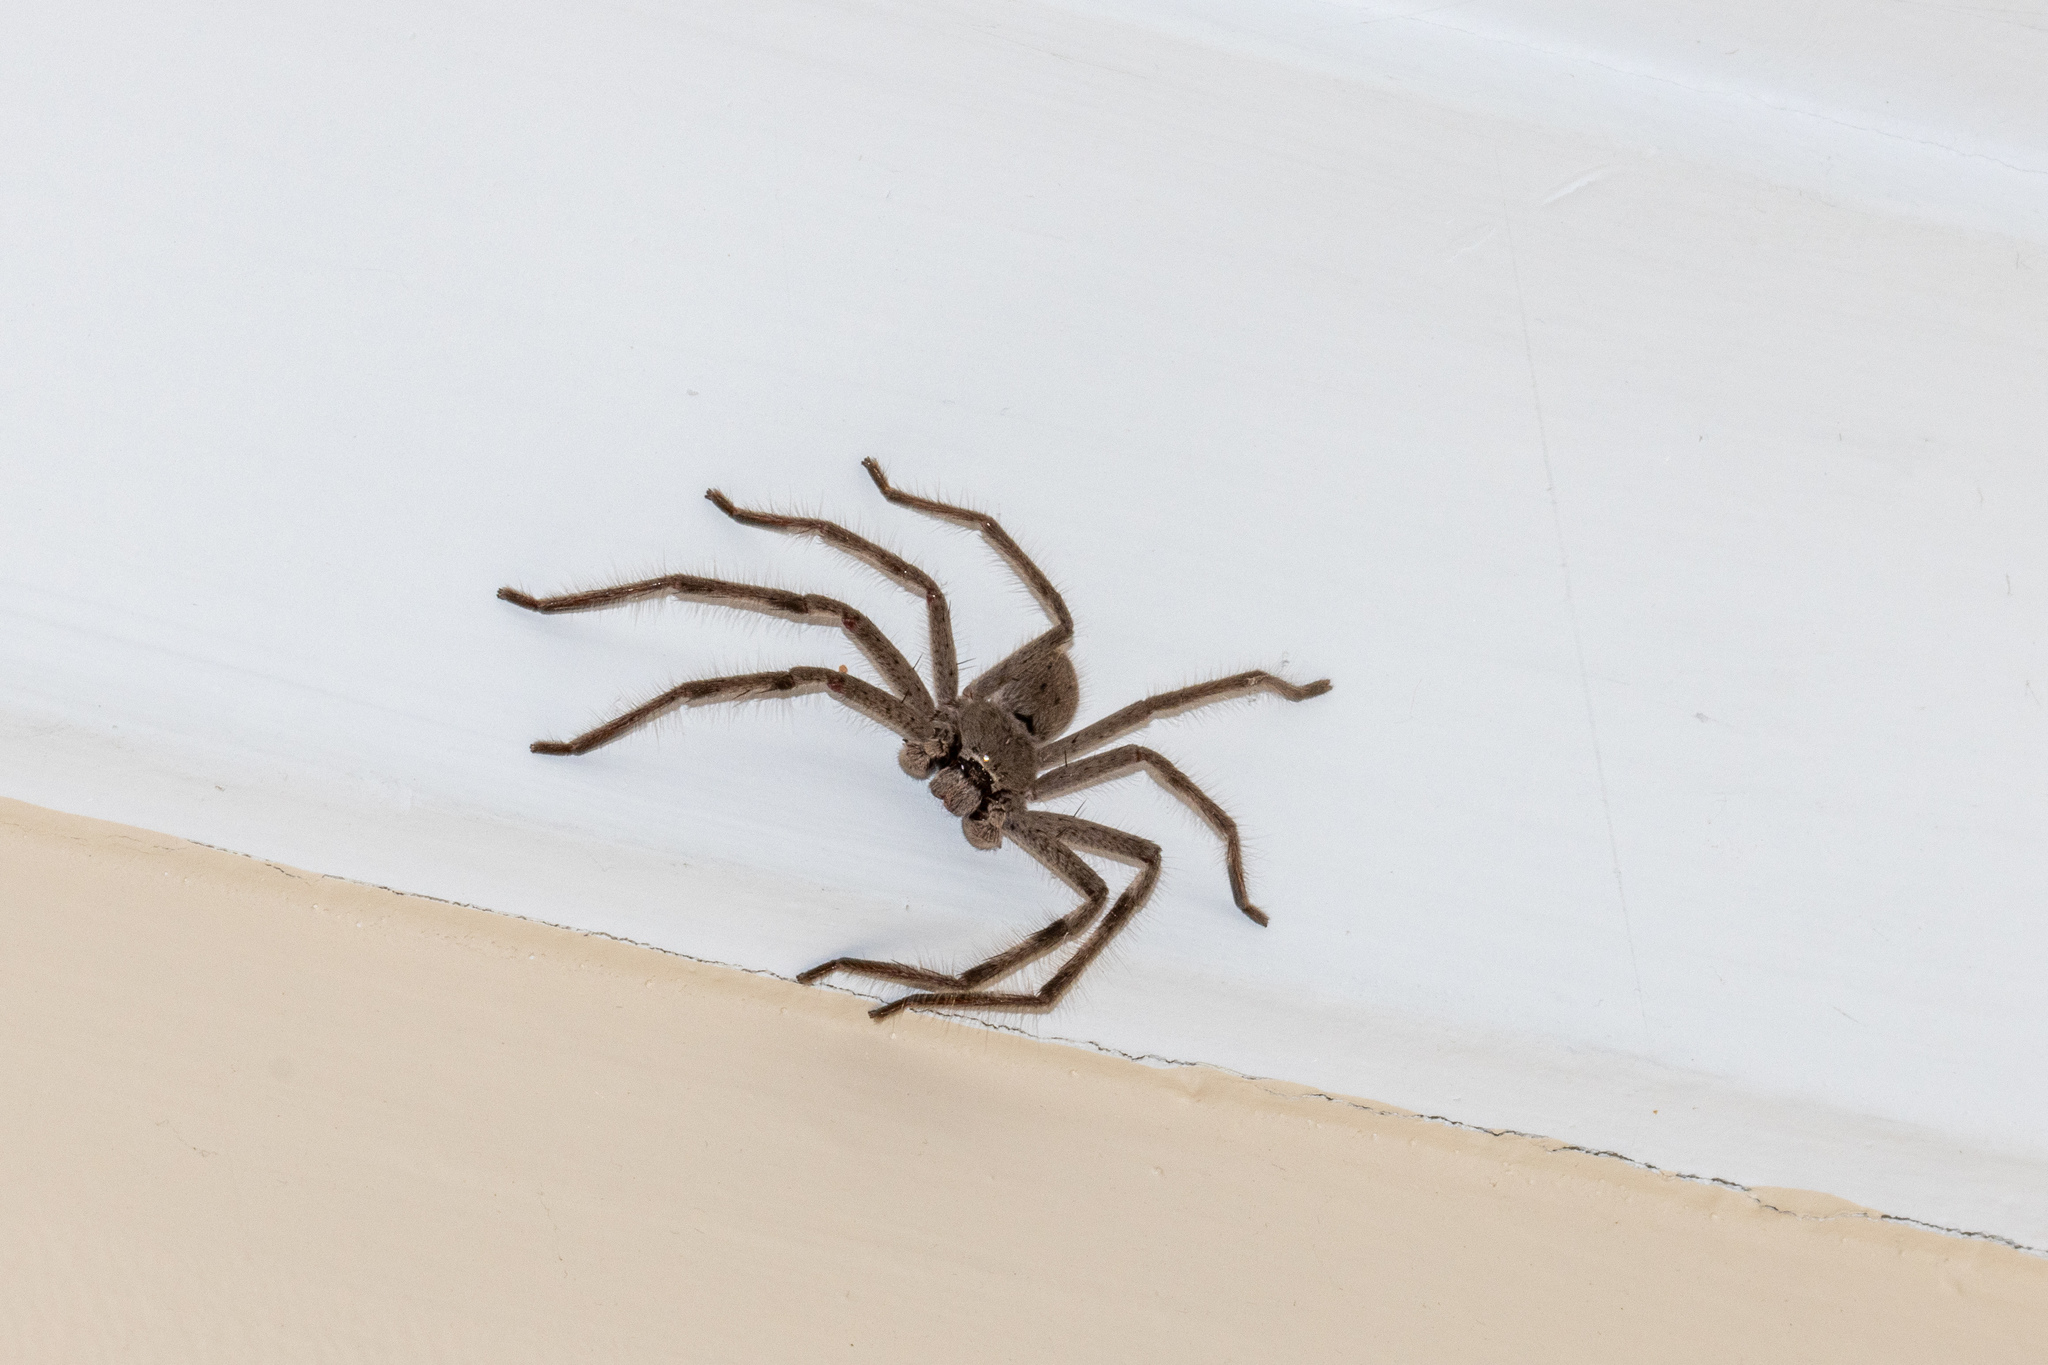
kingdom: Animalia
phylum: Arthropoda
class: Arachnida
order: Araneae
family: Sparassidae
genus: Isopeda
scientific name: Isopeda leishmanni
